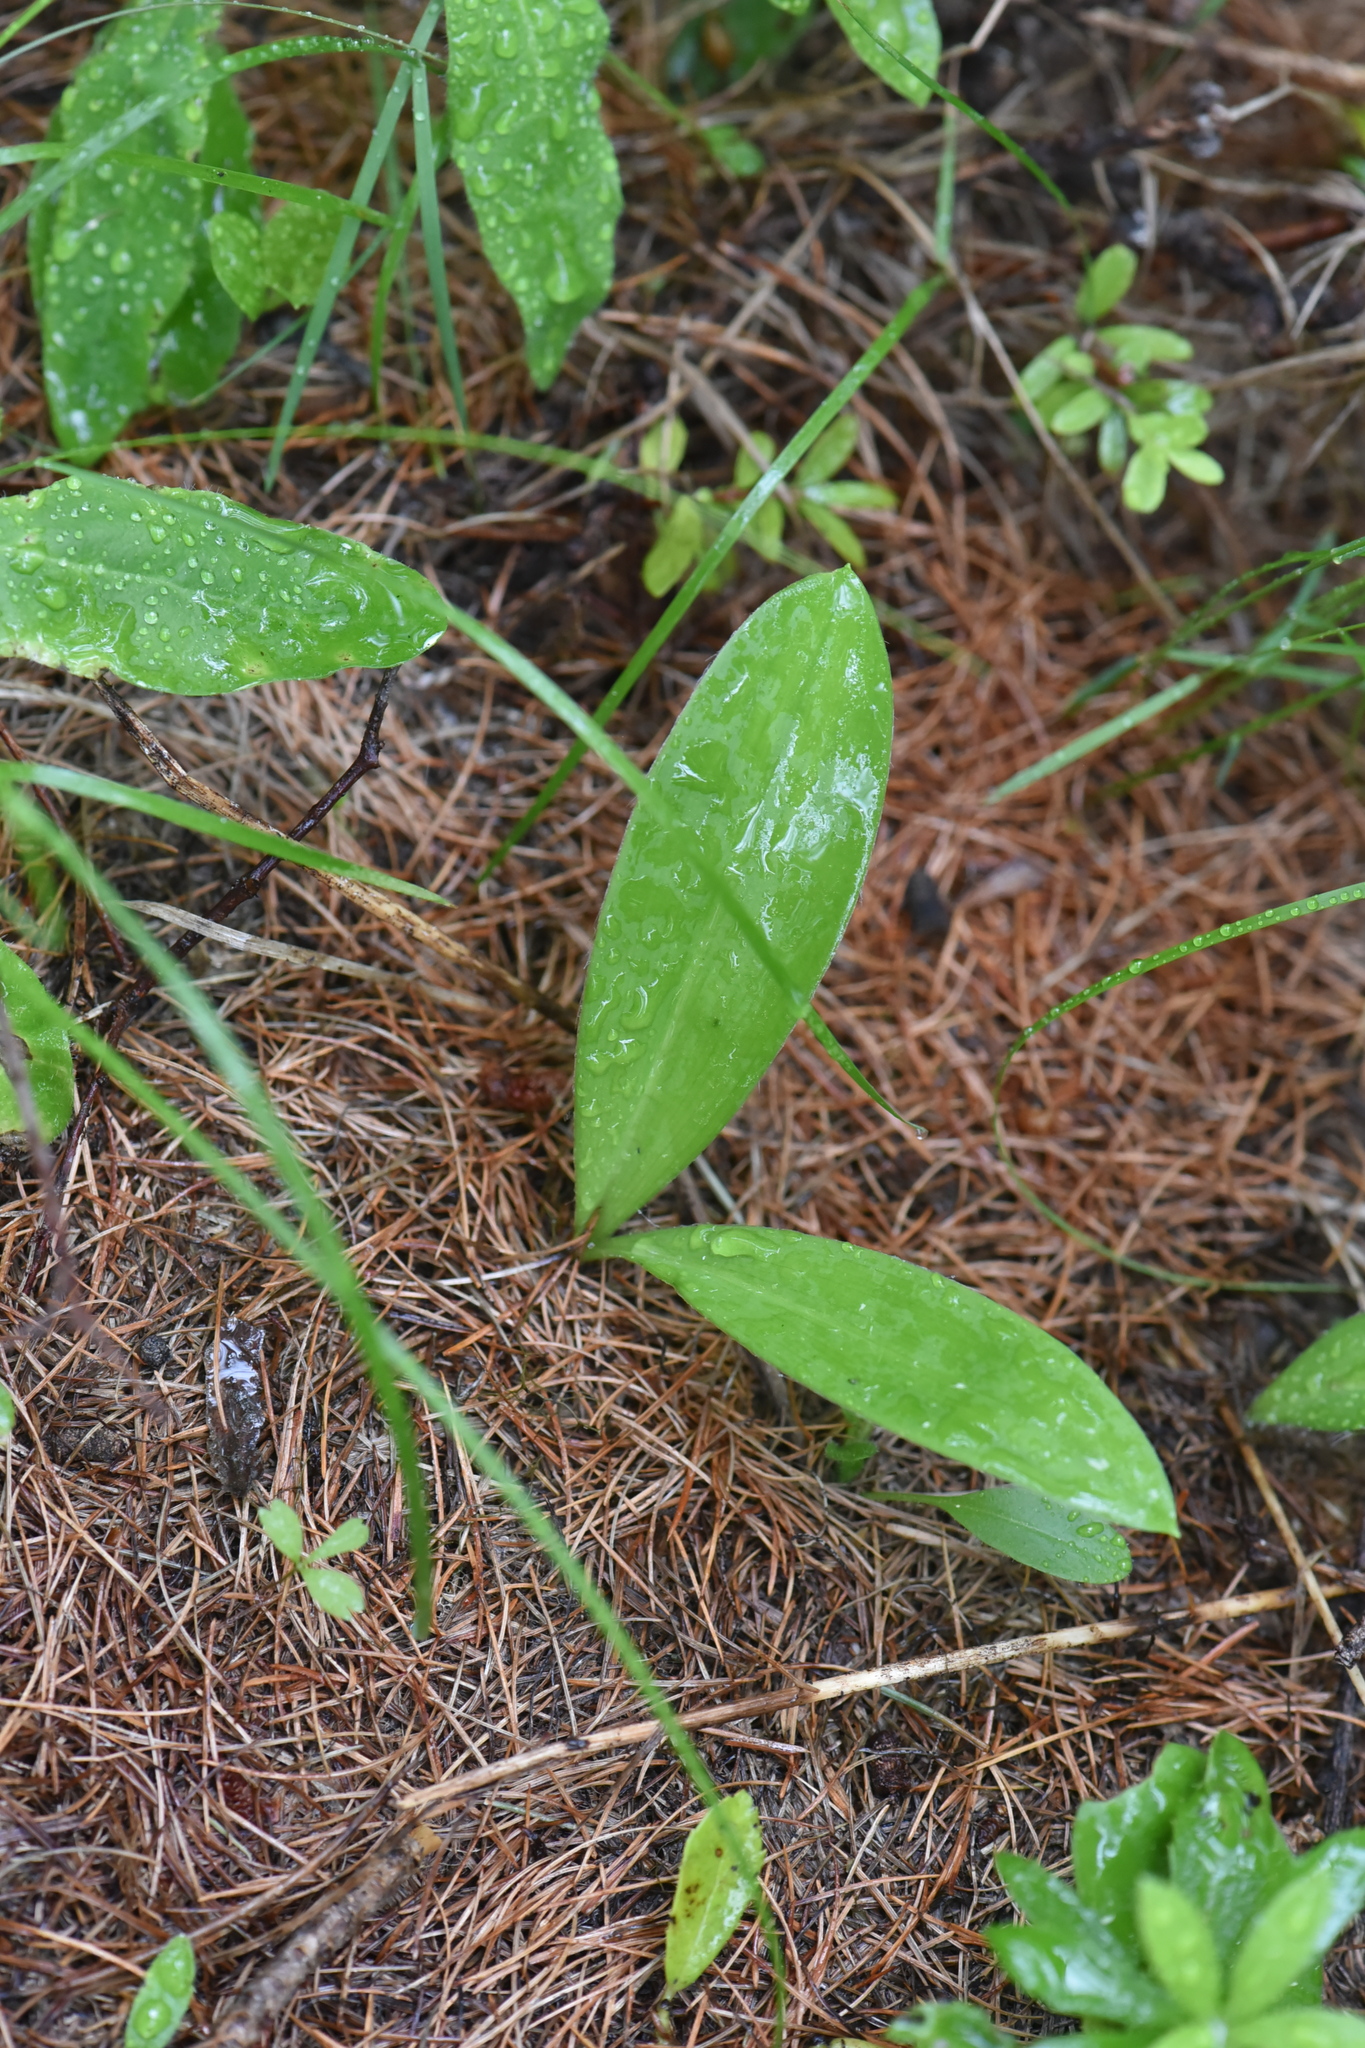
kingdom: Plantae
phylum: Tracheophyta
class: Liliopsida
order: Liliales
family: Liliaceae
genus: Clintonia
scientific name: Clintonia uniflora
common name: Queen's cup
